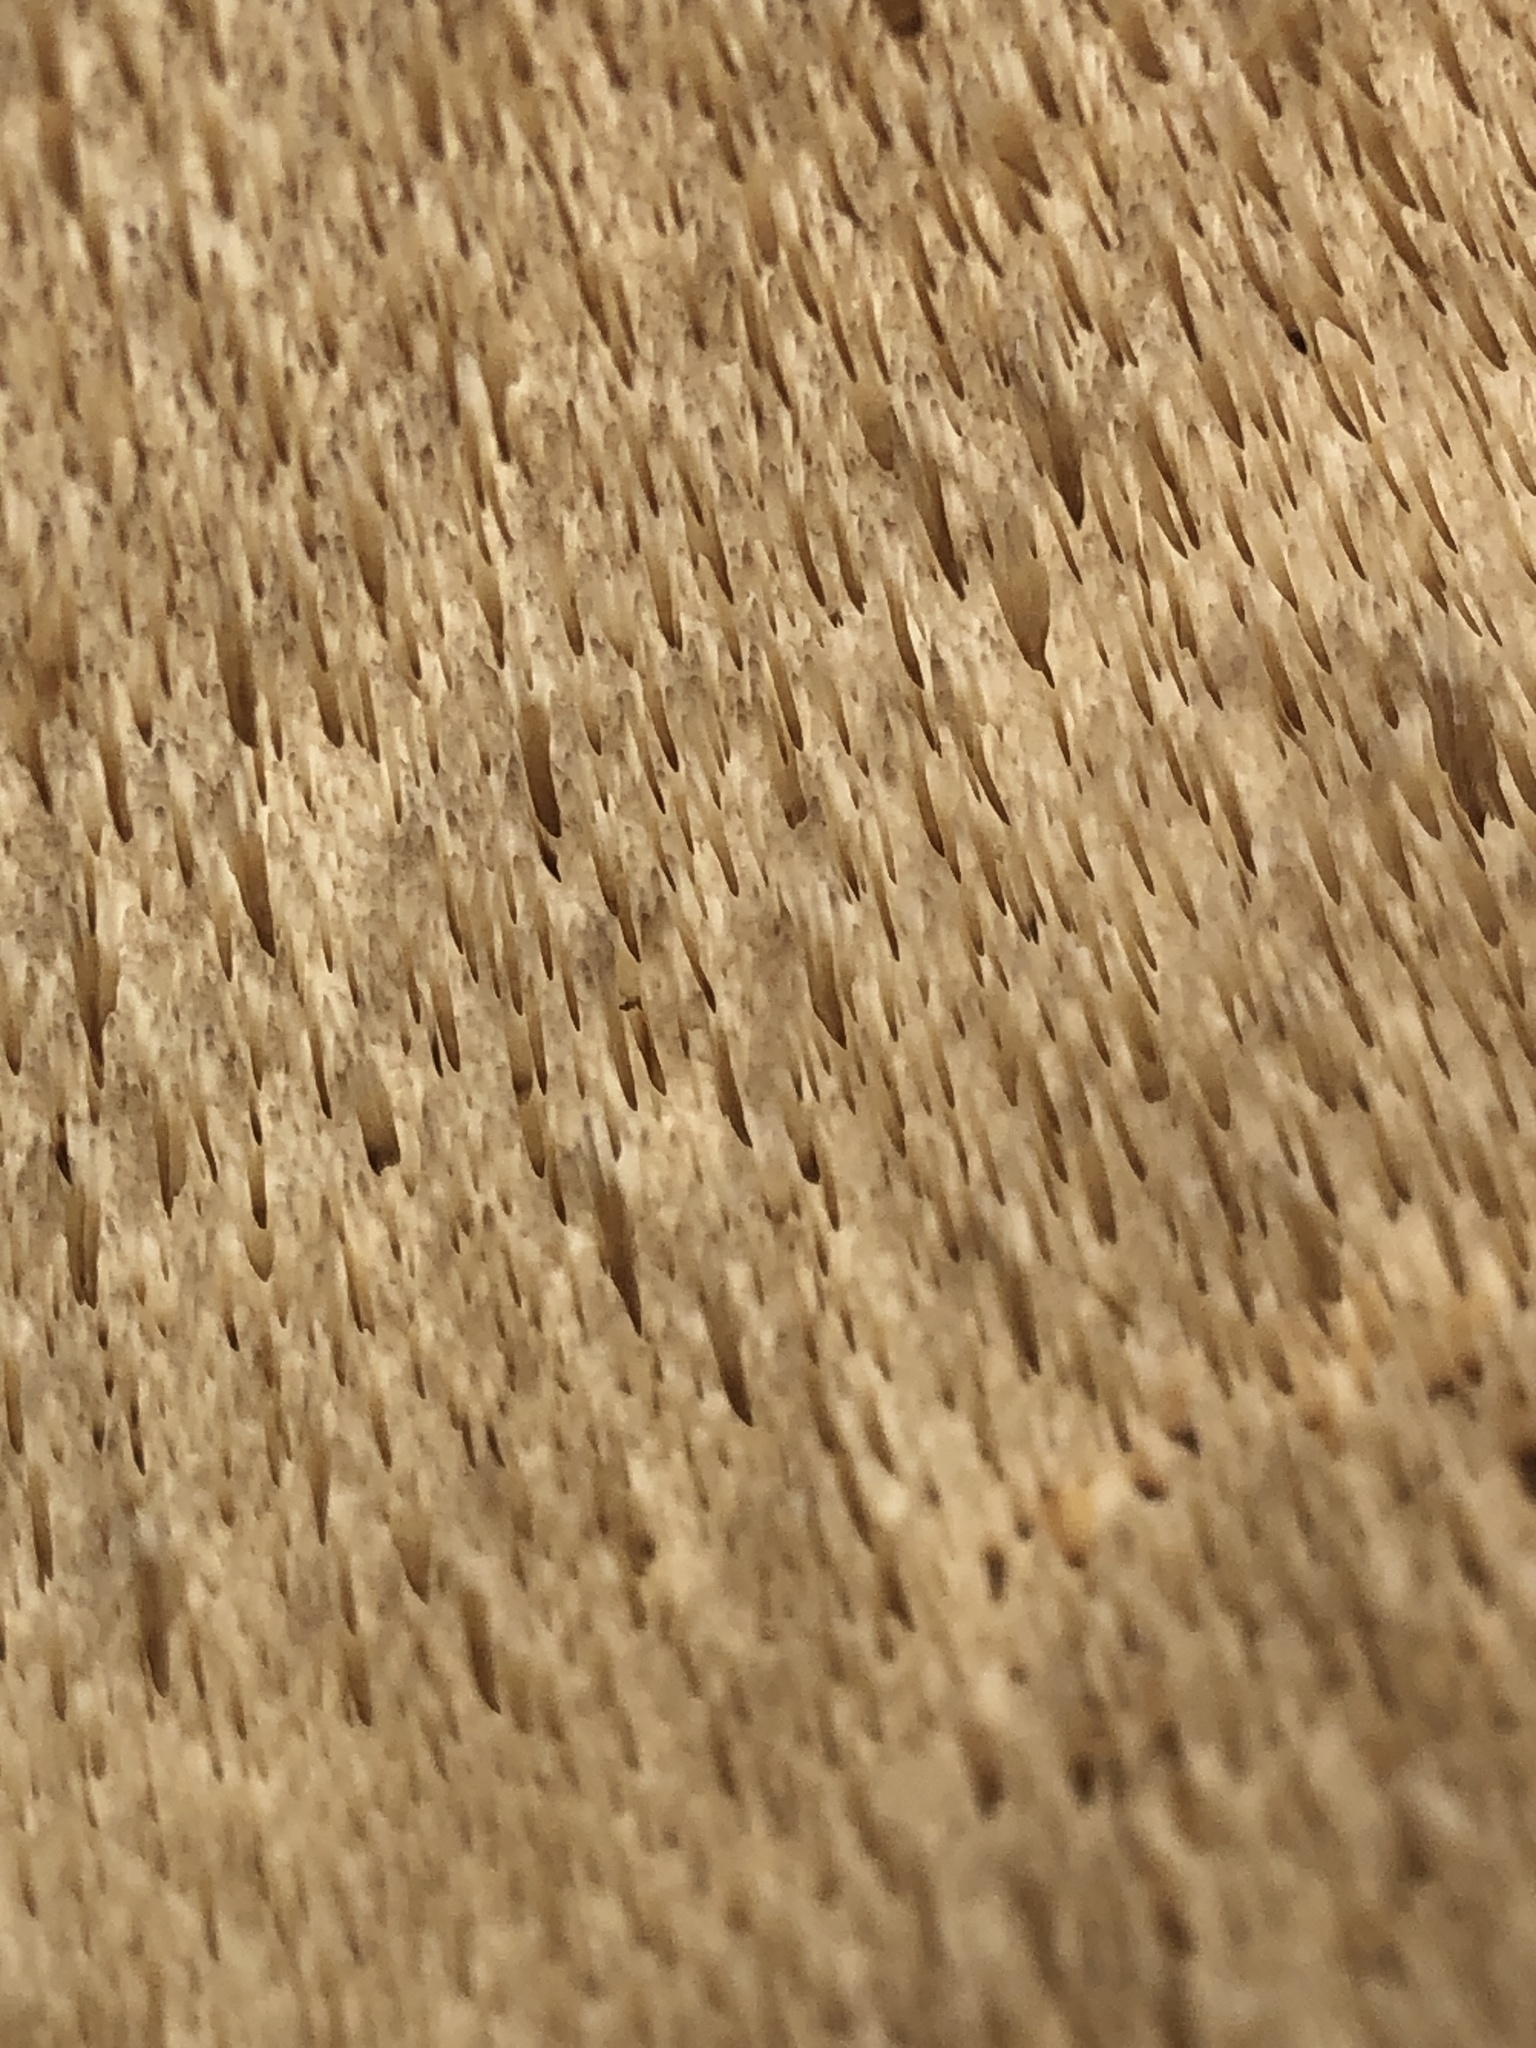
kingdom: Fungi
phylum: Basidiomycota
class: Agaricomycetes
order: Polyporales
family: Fomitopsidaceae
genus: Fomitopsis
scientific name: Fomitopsis betulina
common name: Birch polypore
